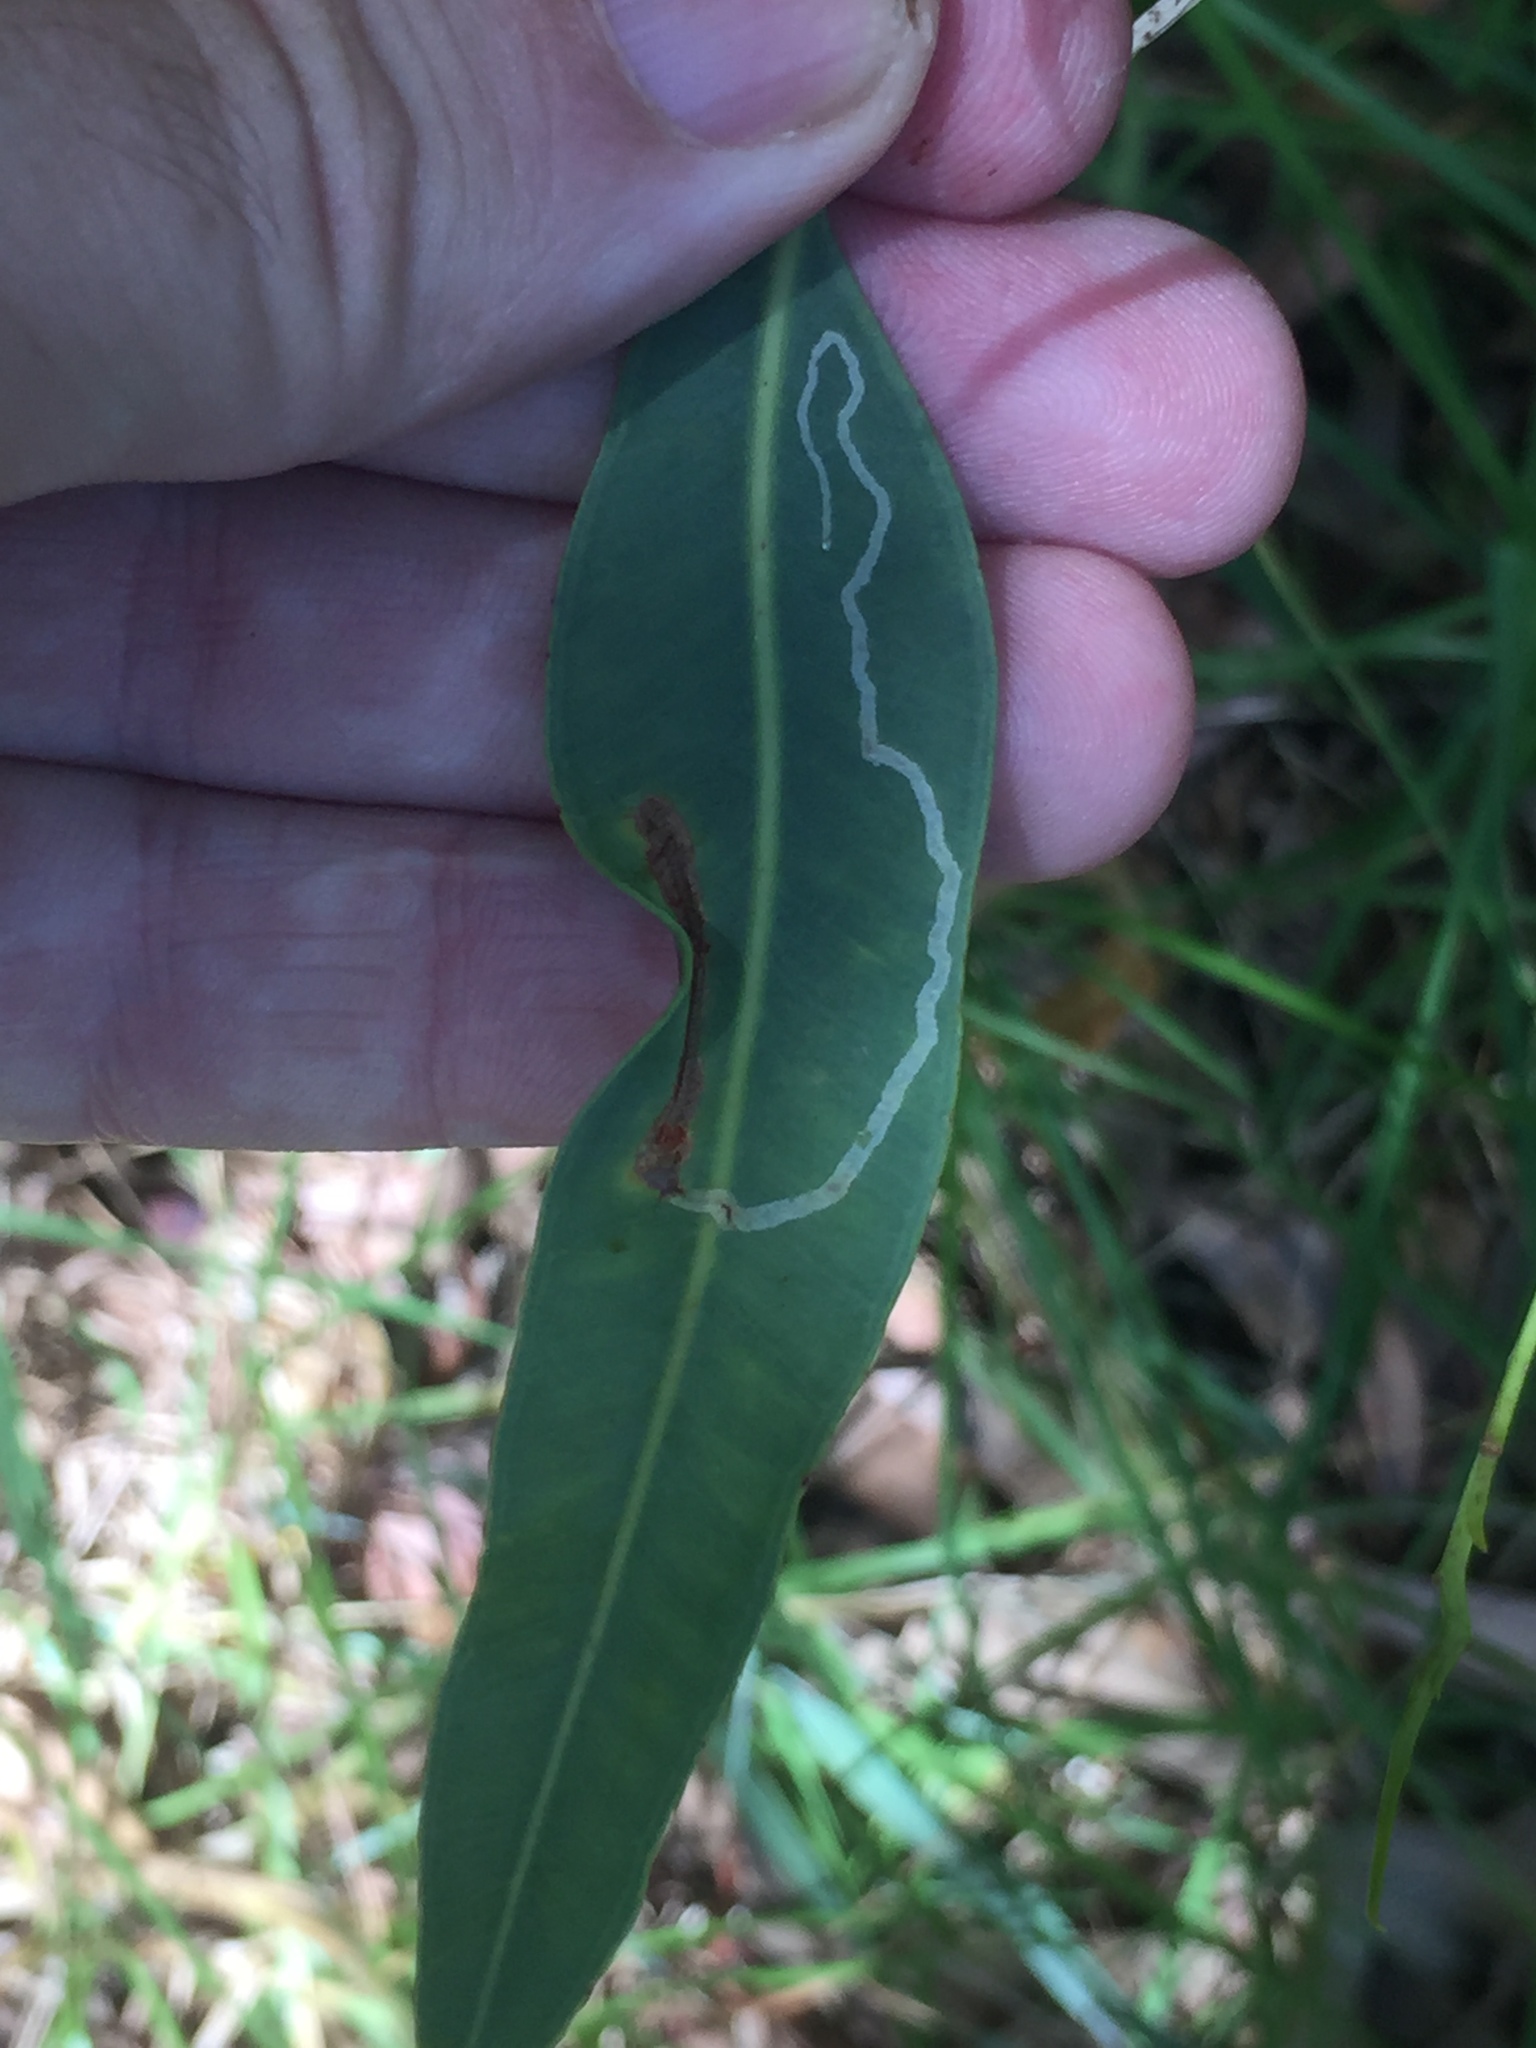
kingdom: Animalia
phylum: Arthropoda
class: Insecta
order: Lepidoptera
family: Gracillariidae
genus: Macarostola
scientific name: Macarostola ida
